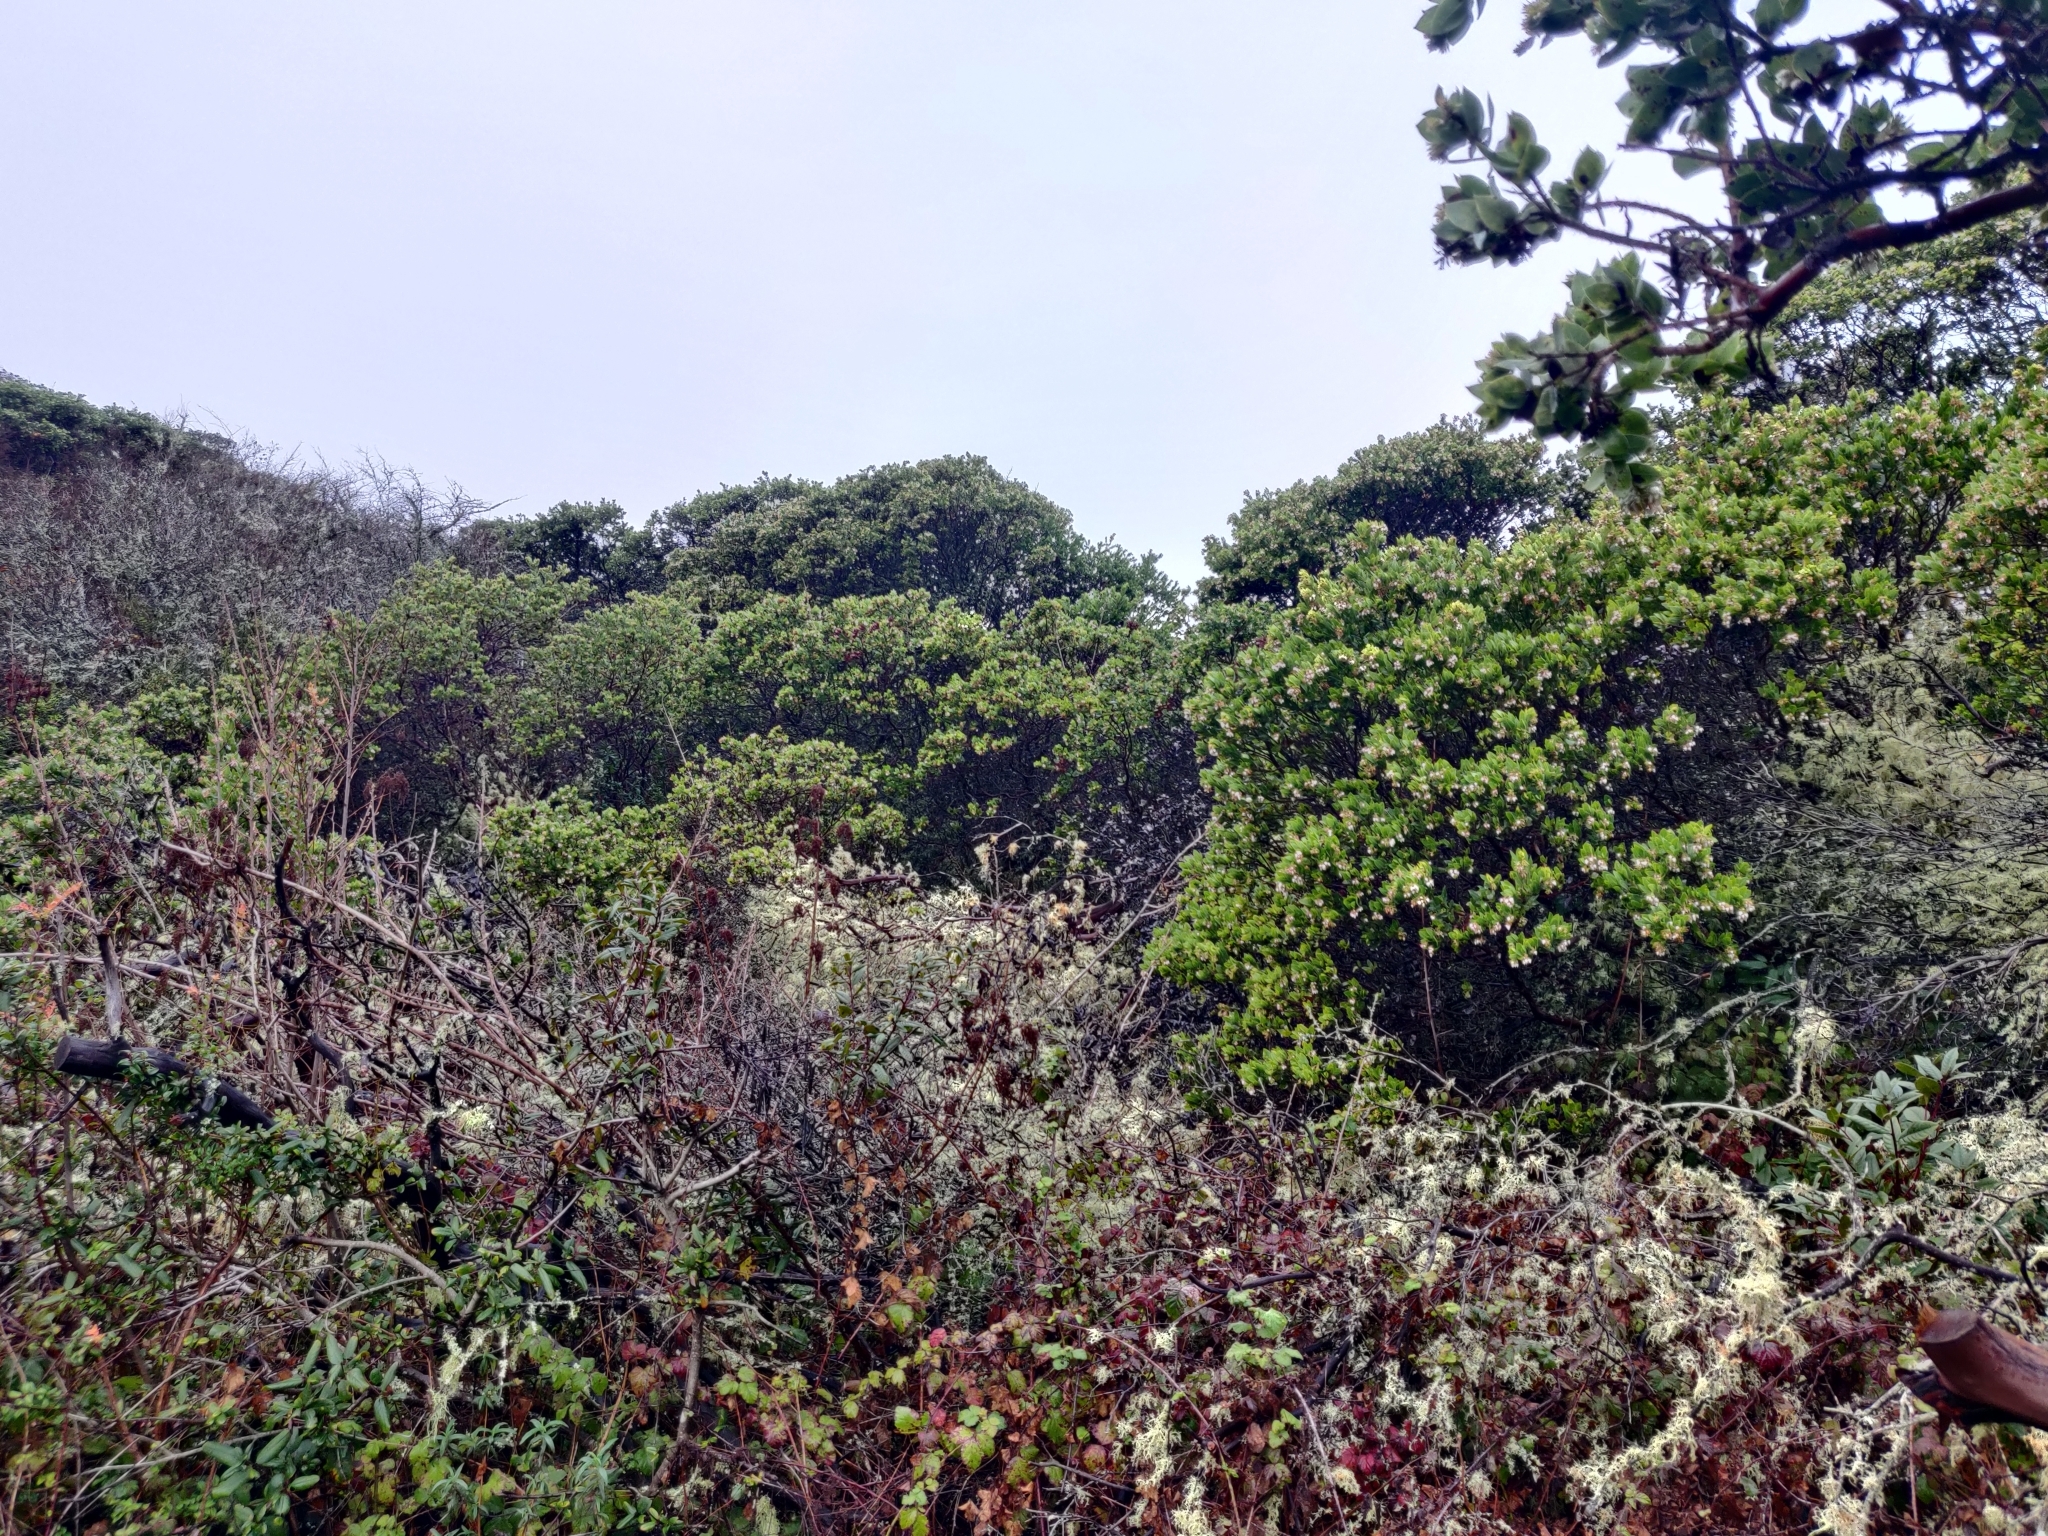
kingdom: Plantae
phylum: Tracheophyta
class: Magnoliopsida
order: Ericales
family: Ericaceae
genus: Arctostaphylos
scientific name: Arctostaphylos montaraensis
